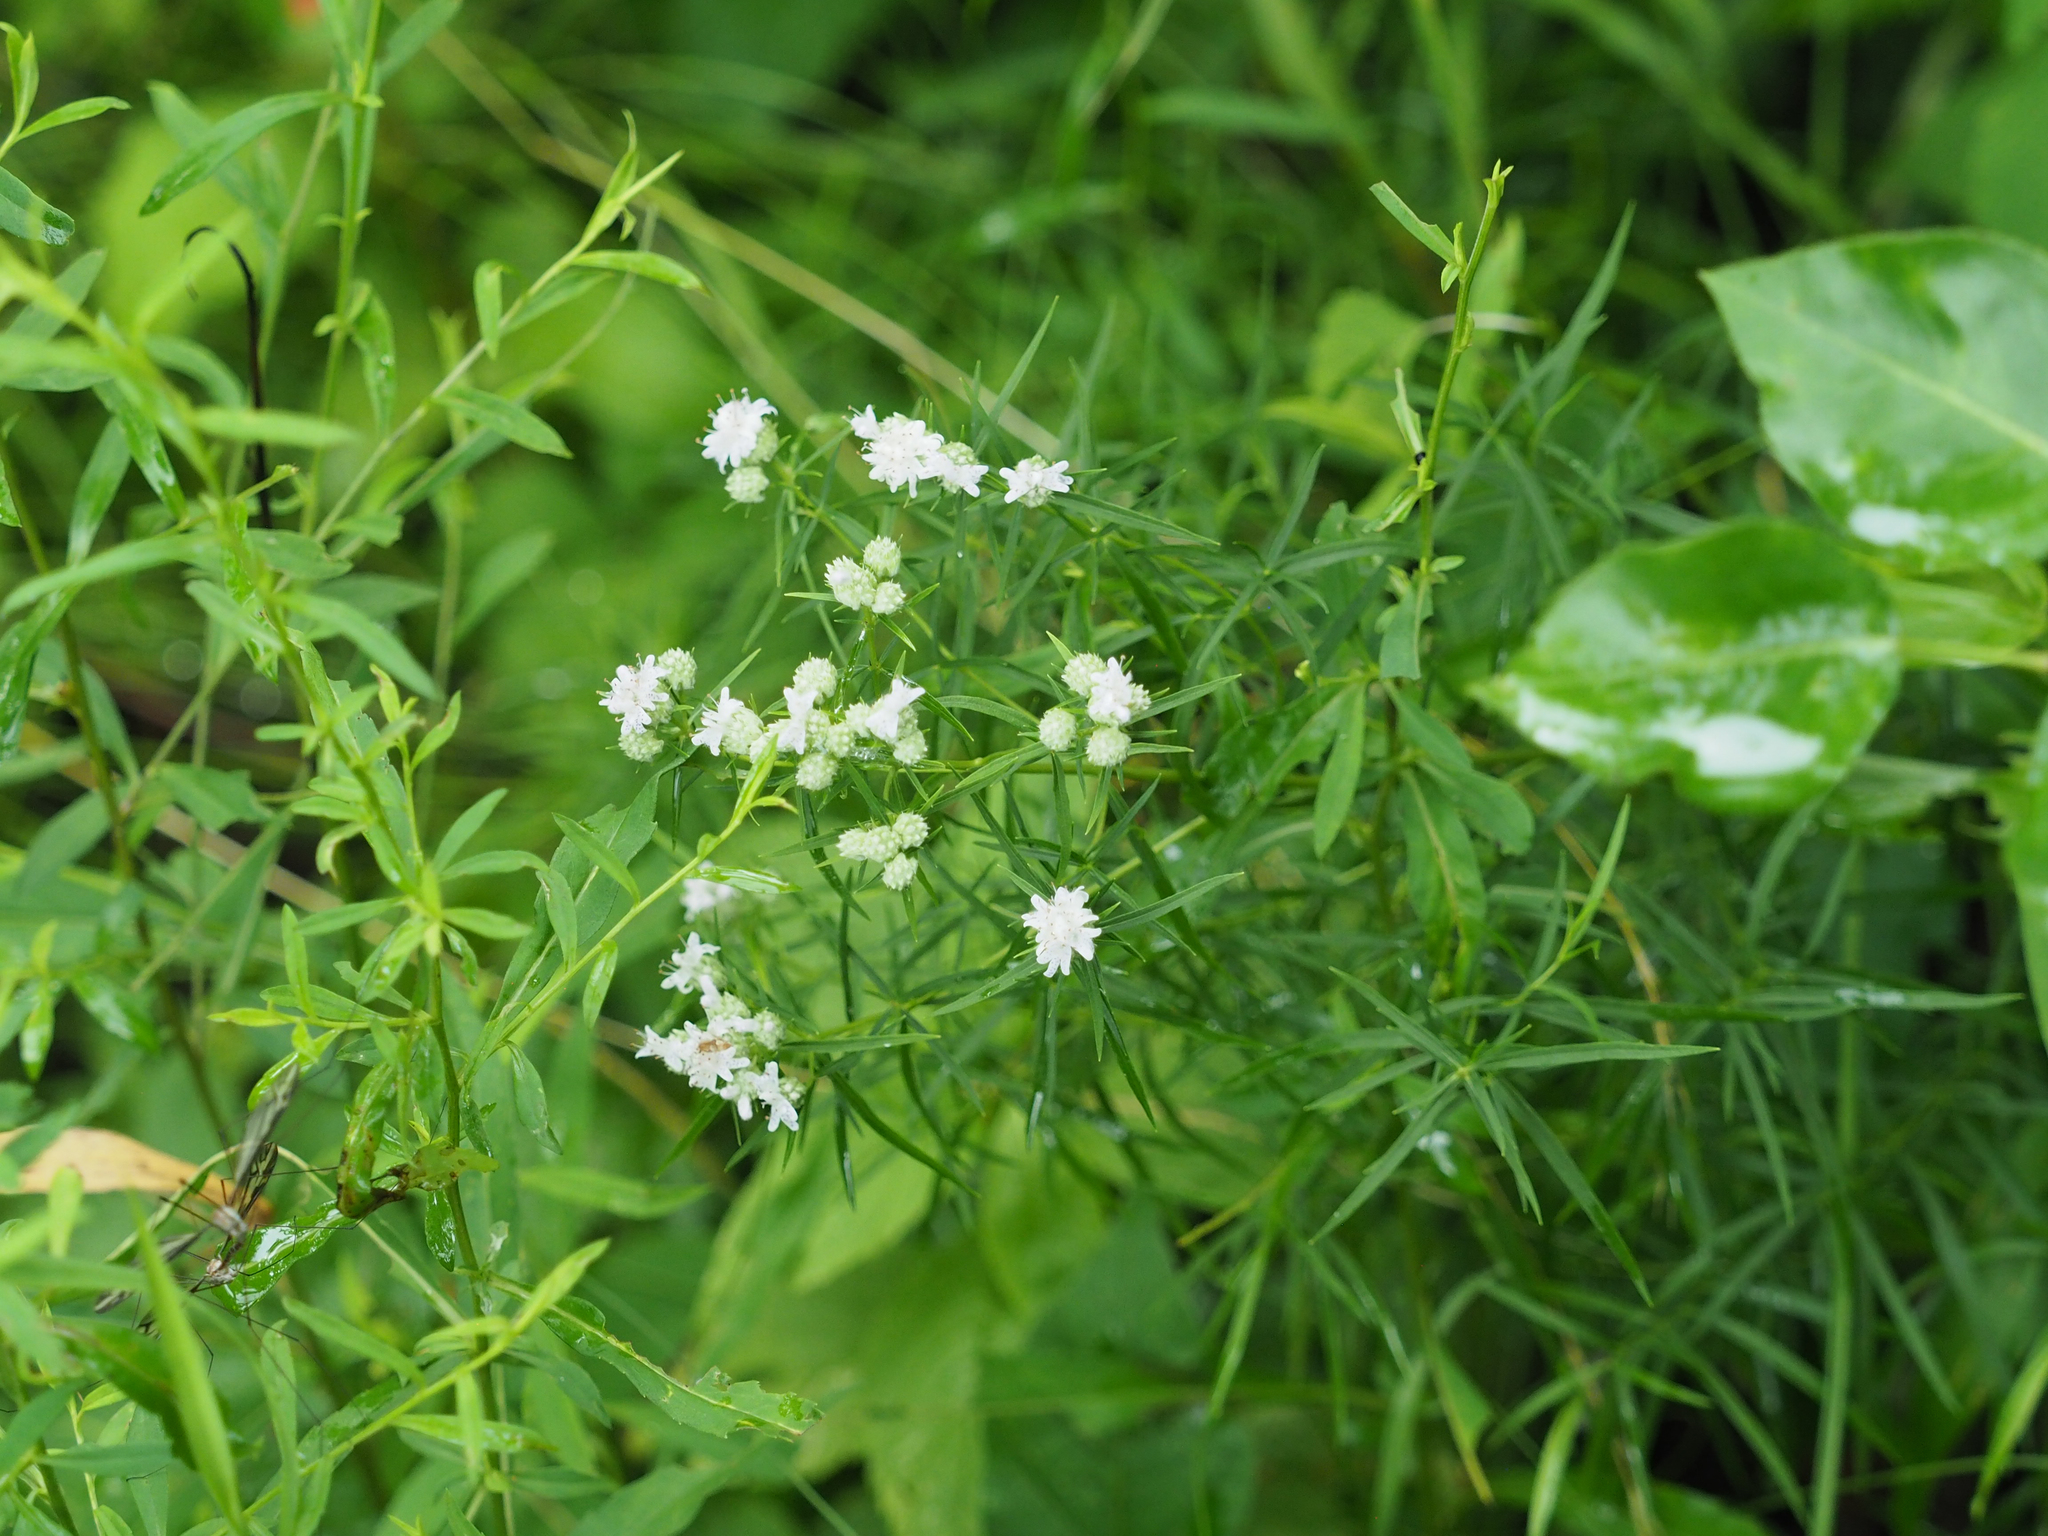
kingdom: Plantae
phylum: Tracheophyta
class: Magnoliopsida
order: Lamiales
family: Lamiaceae
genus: Pycnanthemum
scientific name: Pycnanthemum tenuifolium
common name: Narrow-leaf mountain-mint
